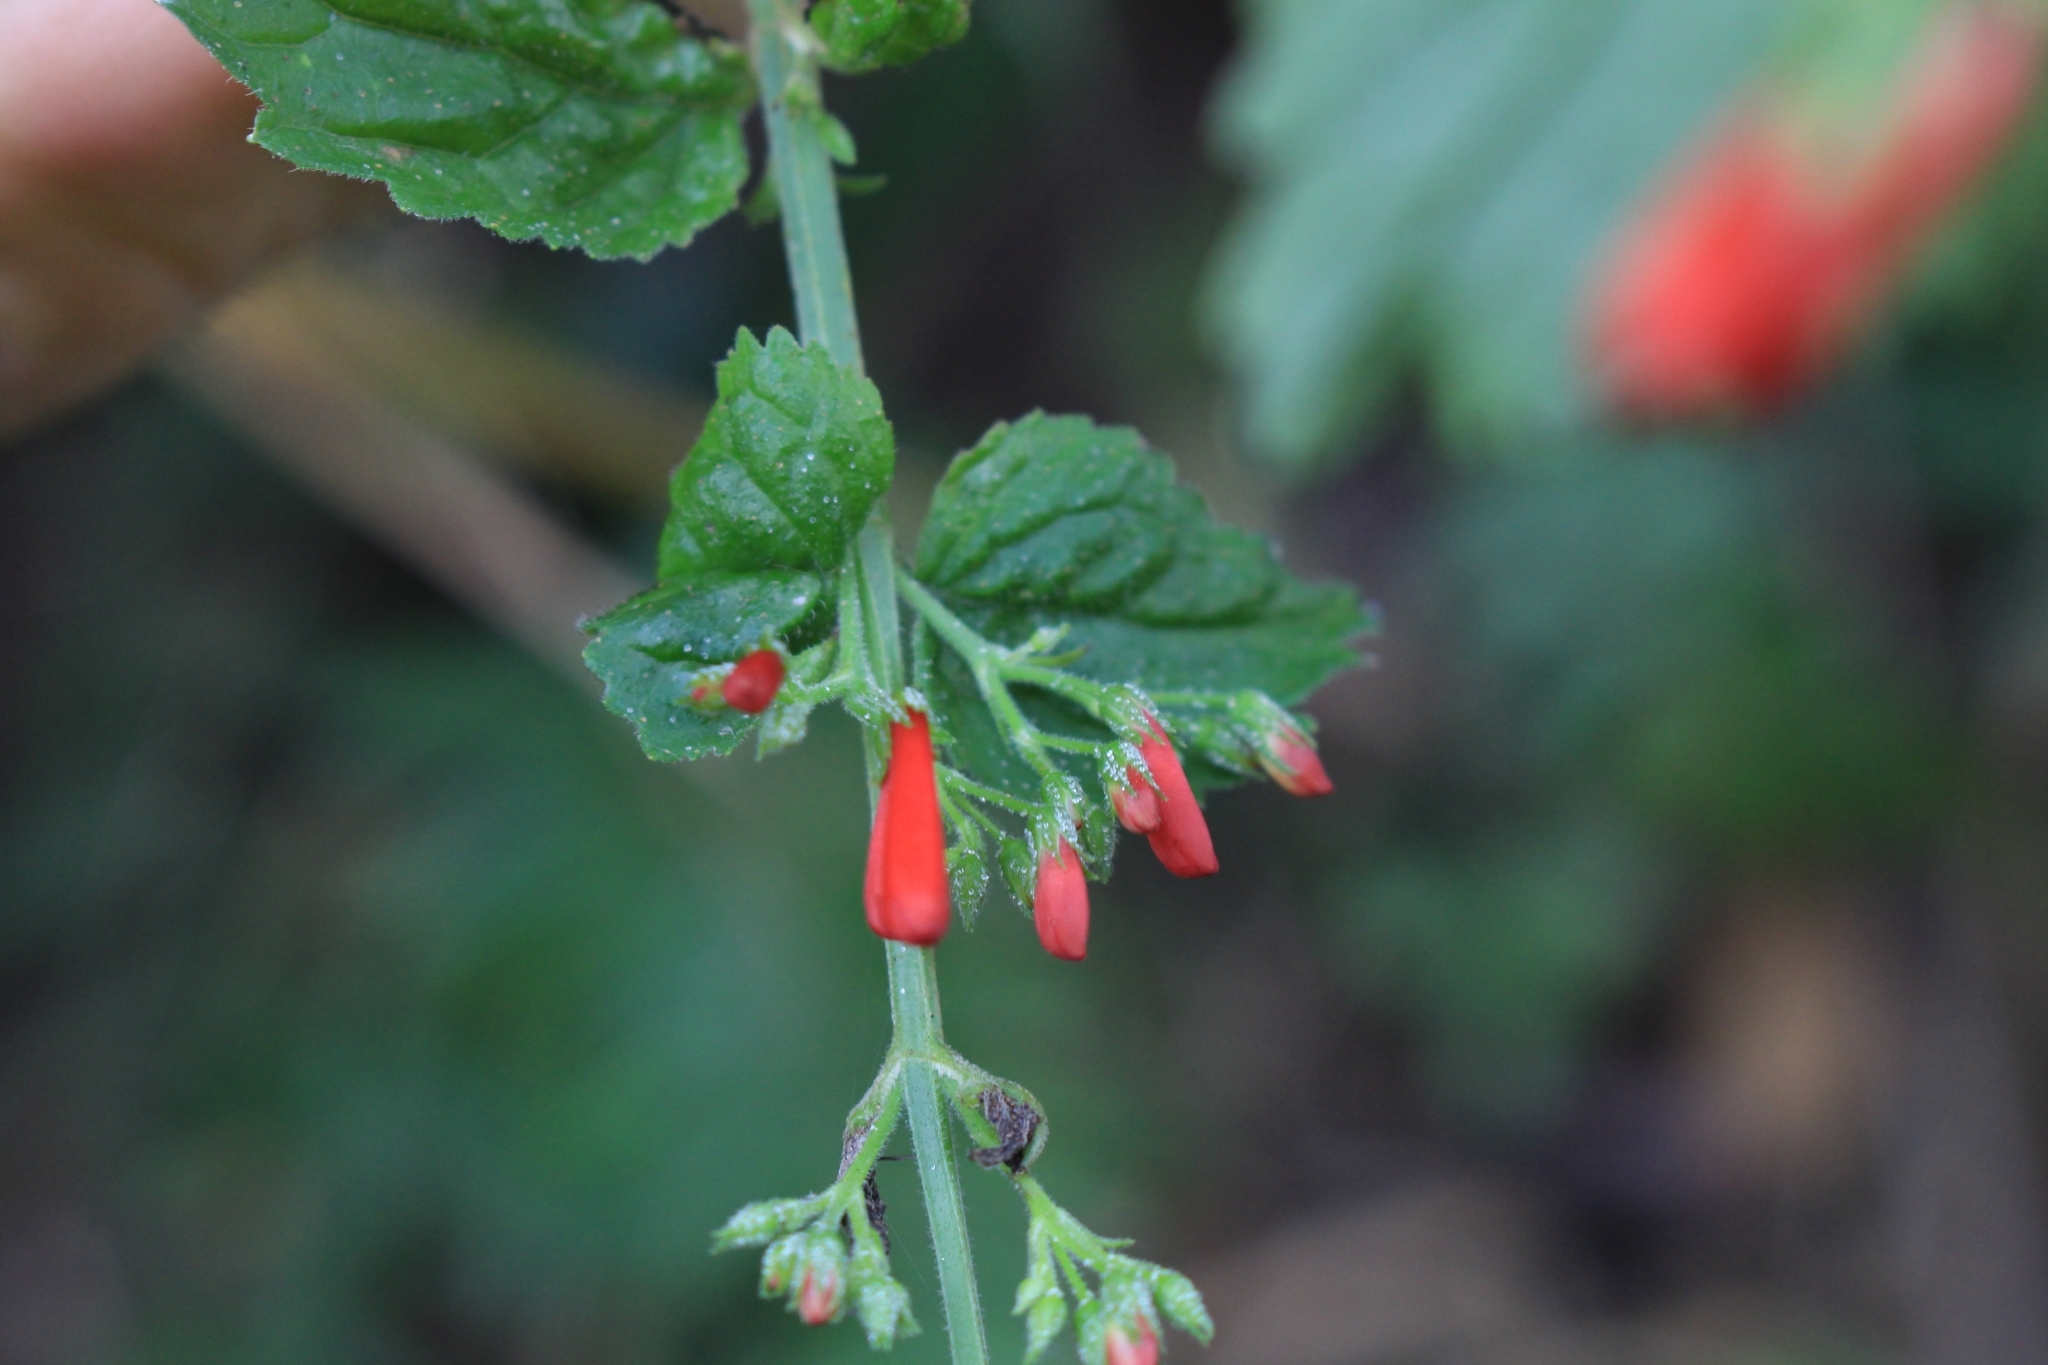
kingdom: Plantae
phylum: Tracheophyta
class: Magnoliopsida
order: Lamiales
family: Plantaginaceae
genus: Russelia
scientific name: Russelia sarmentosa
